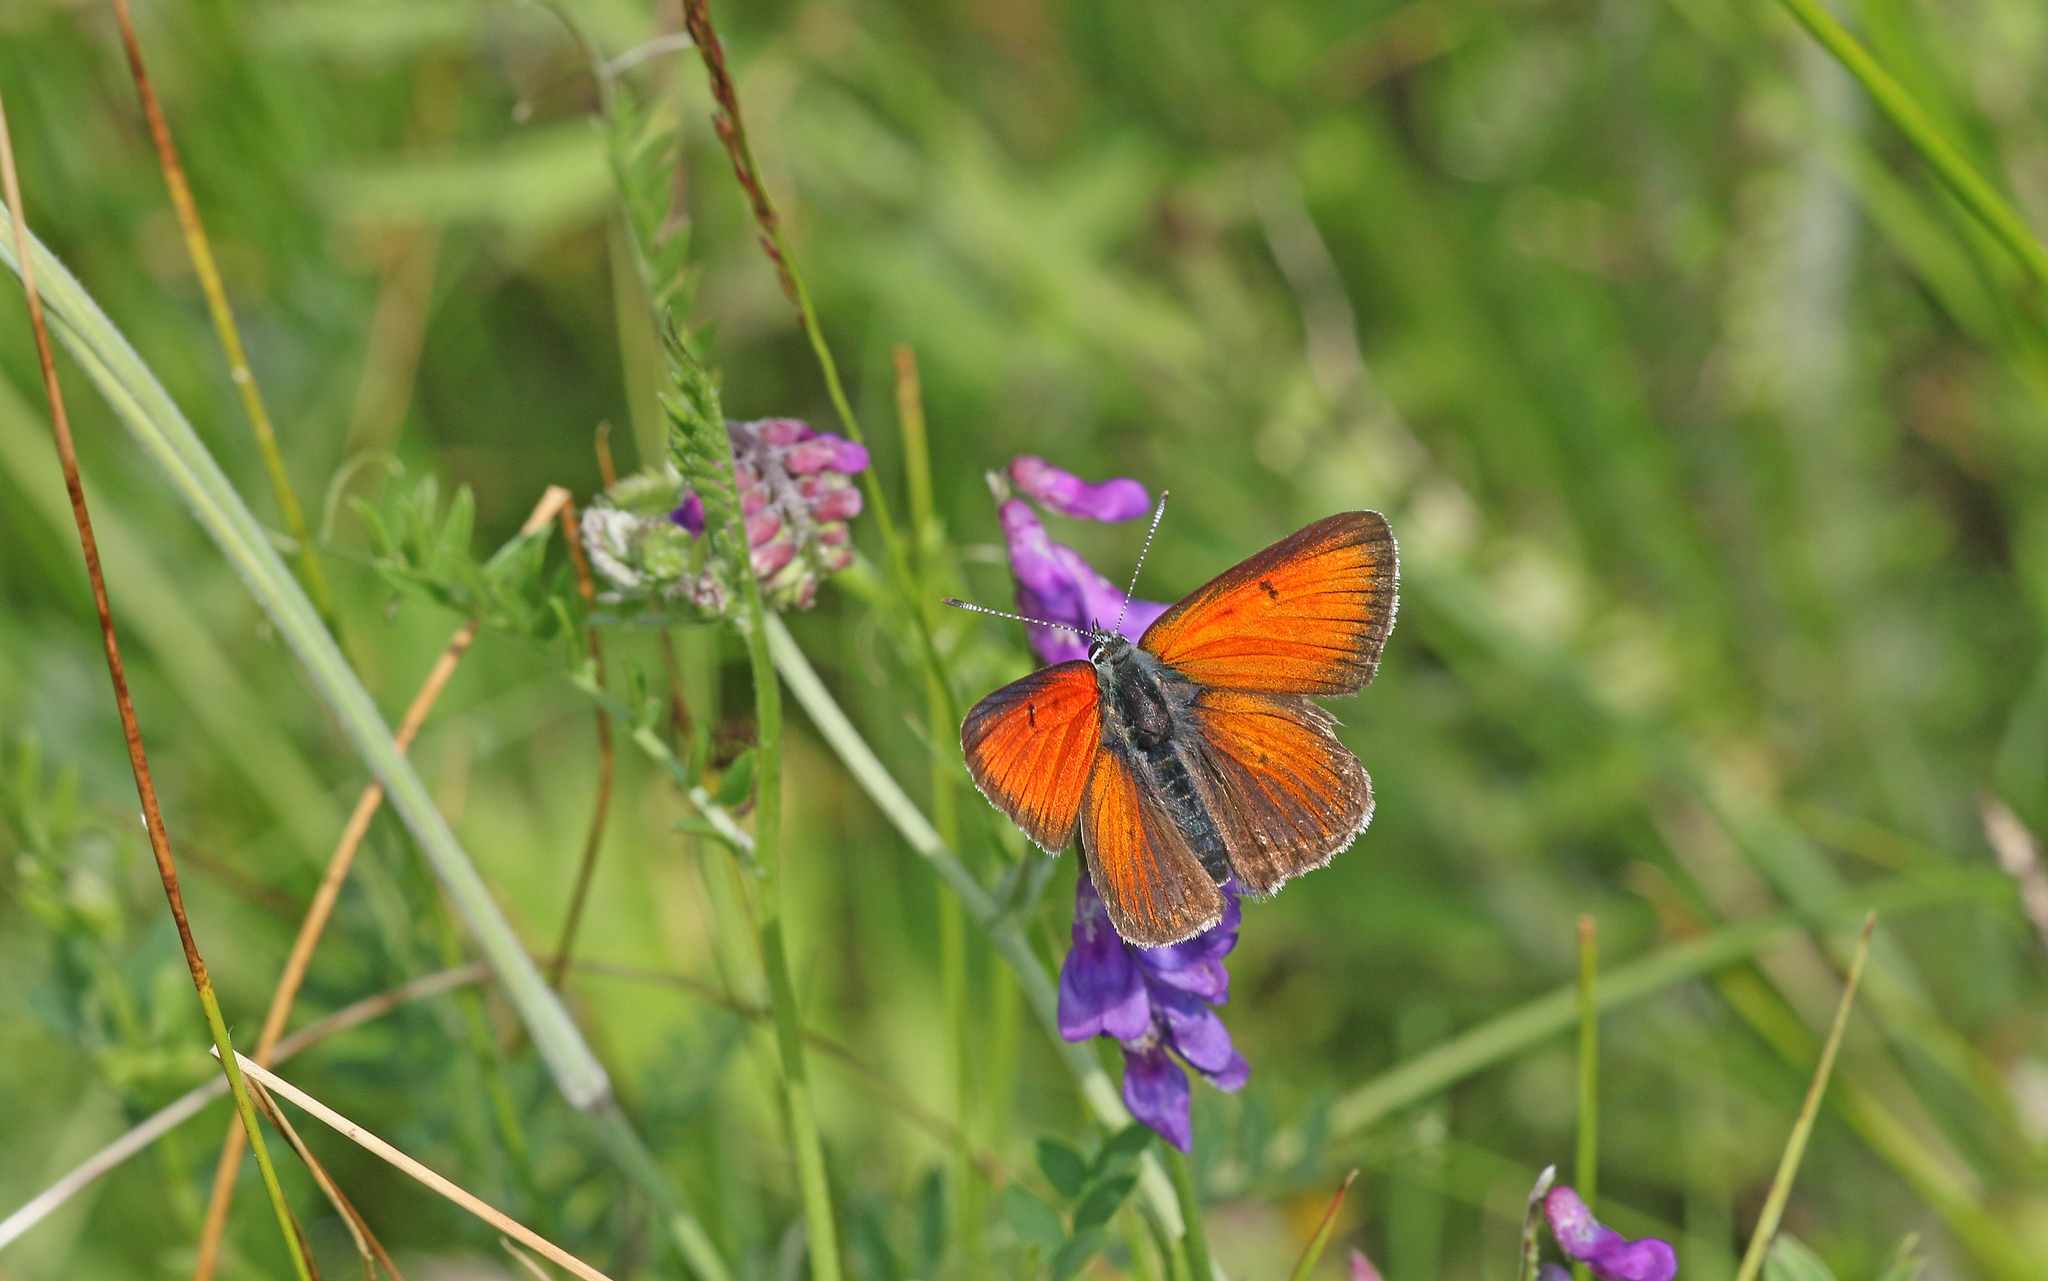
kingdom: Animalia
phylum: Arthropoda
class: Insecta
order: Lepidoptera
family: Lycaenidae
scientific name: Lycaenidae
